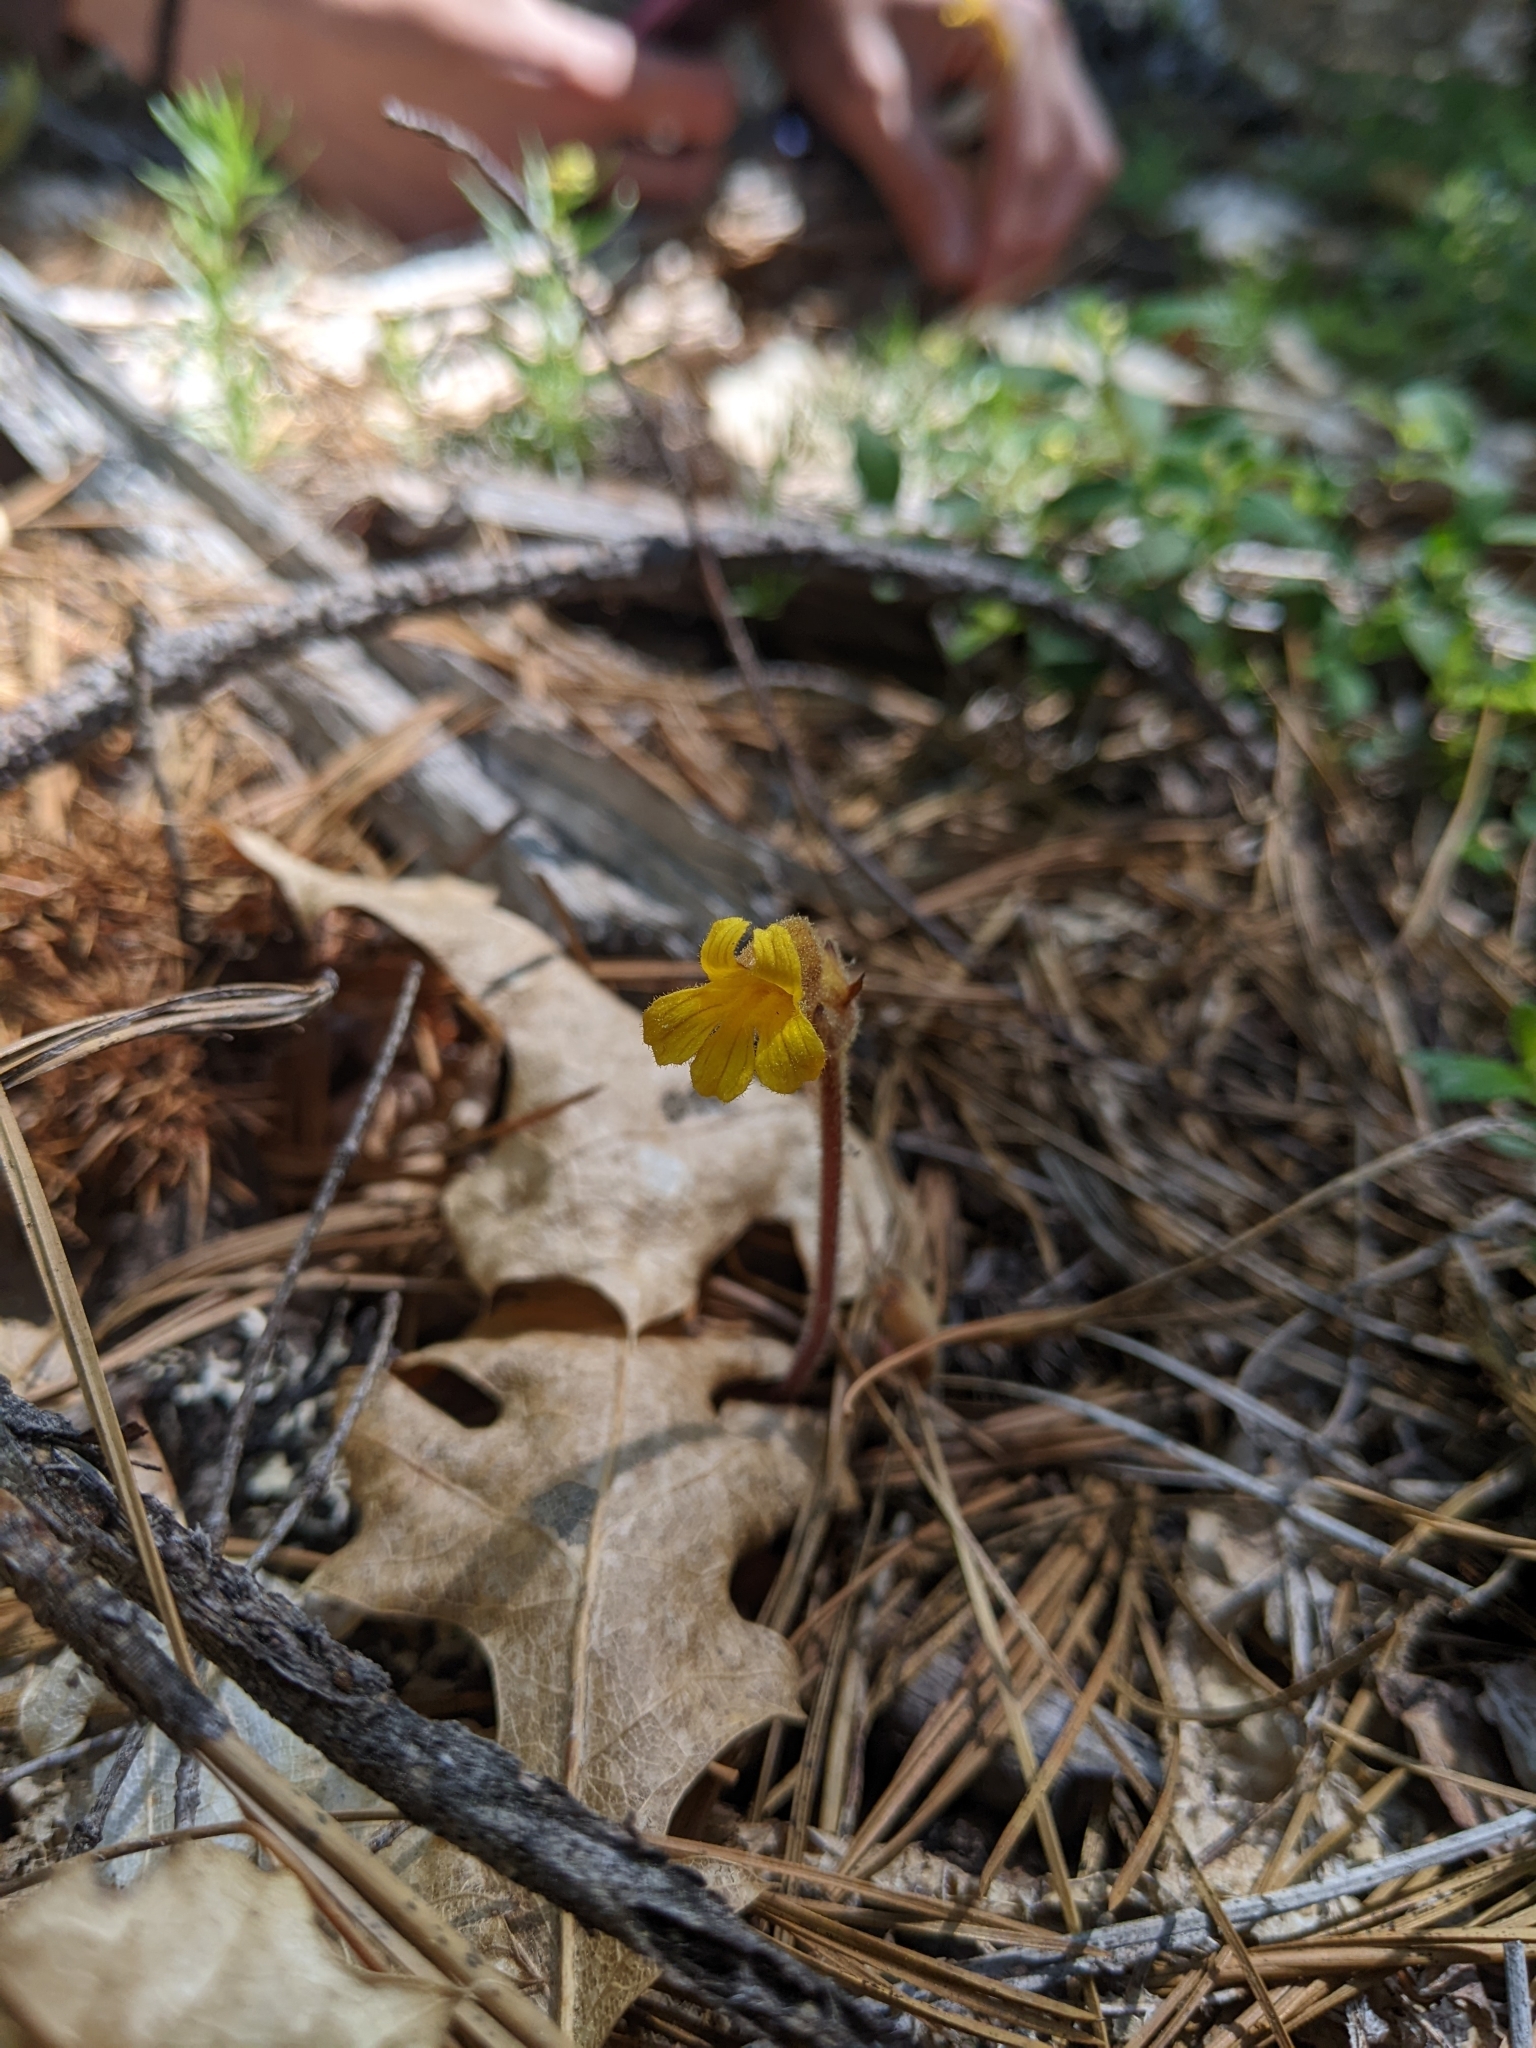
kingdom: Plantae
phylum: Tracheophyta
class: Magnoliopsida
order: Lamiales
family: Orobanchaceae
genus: Aphyllon
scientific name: Aphyllon epigalium
